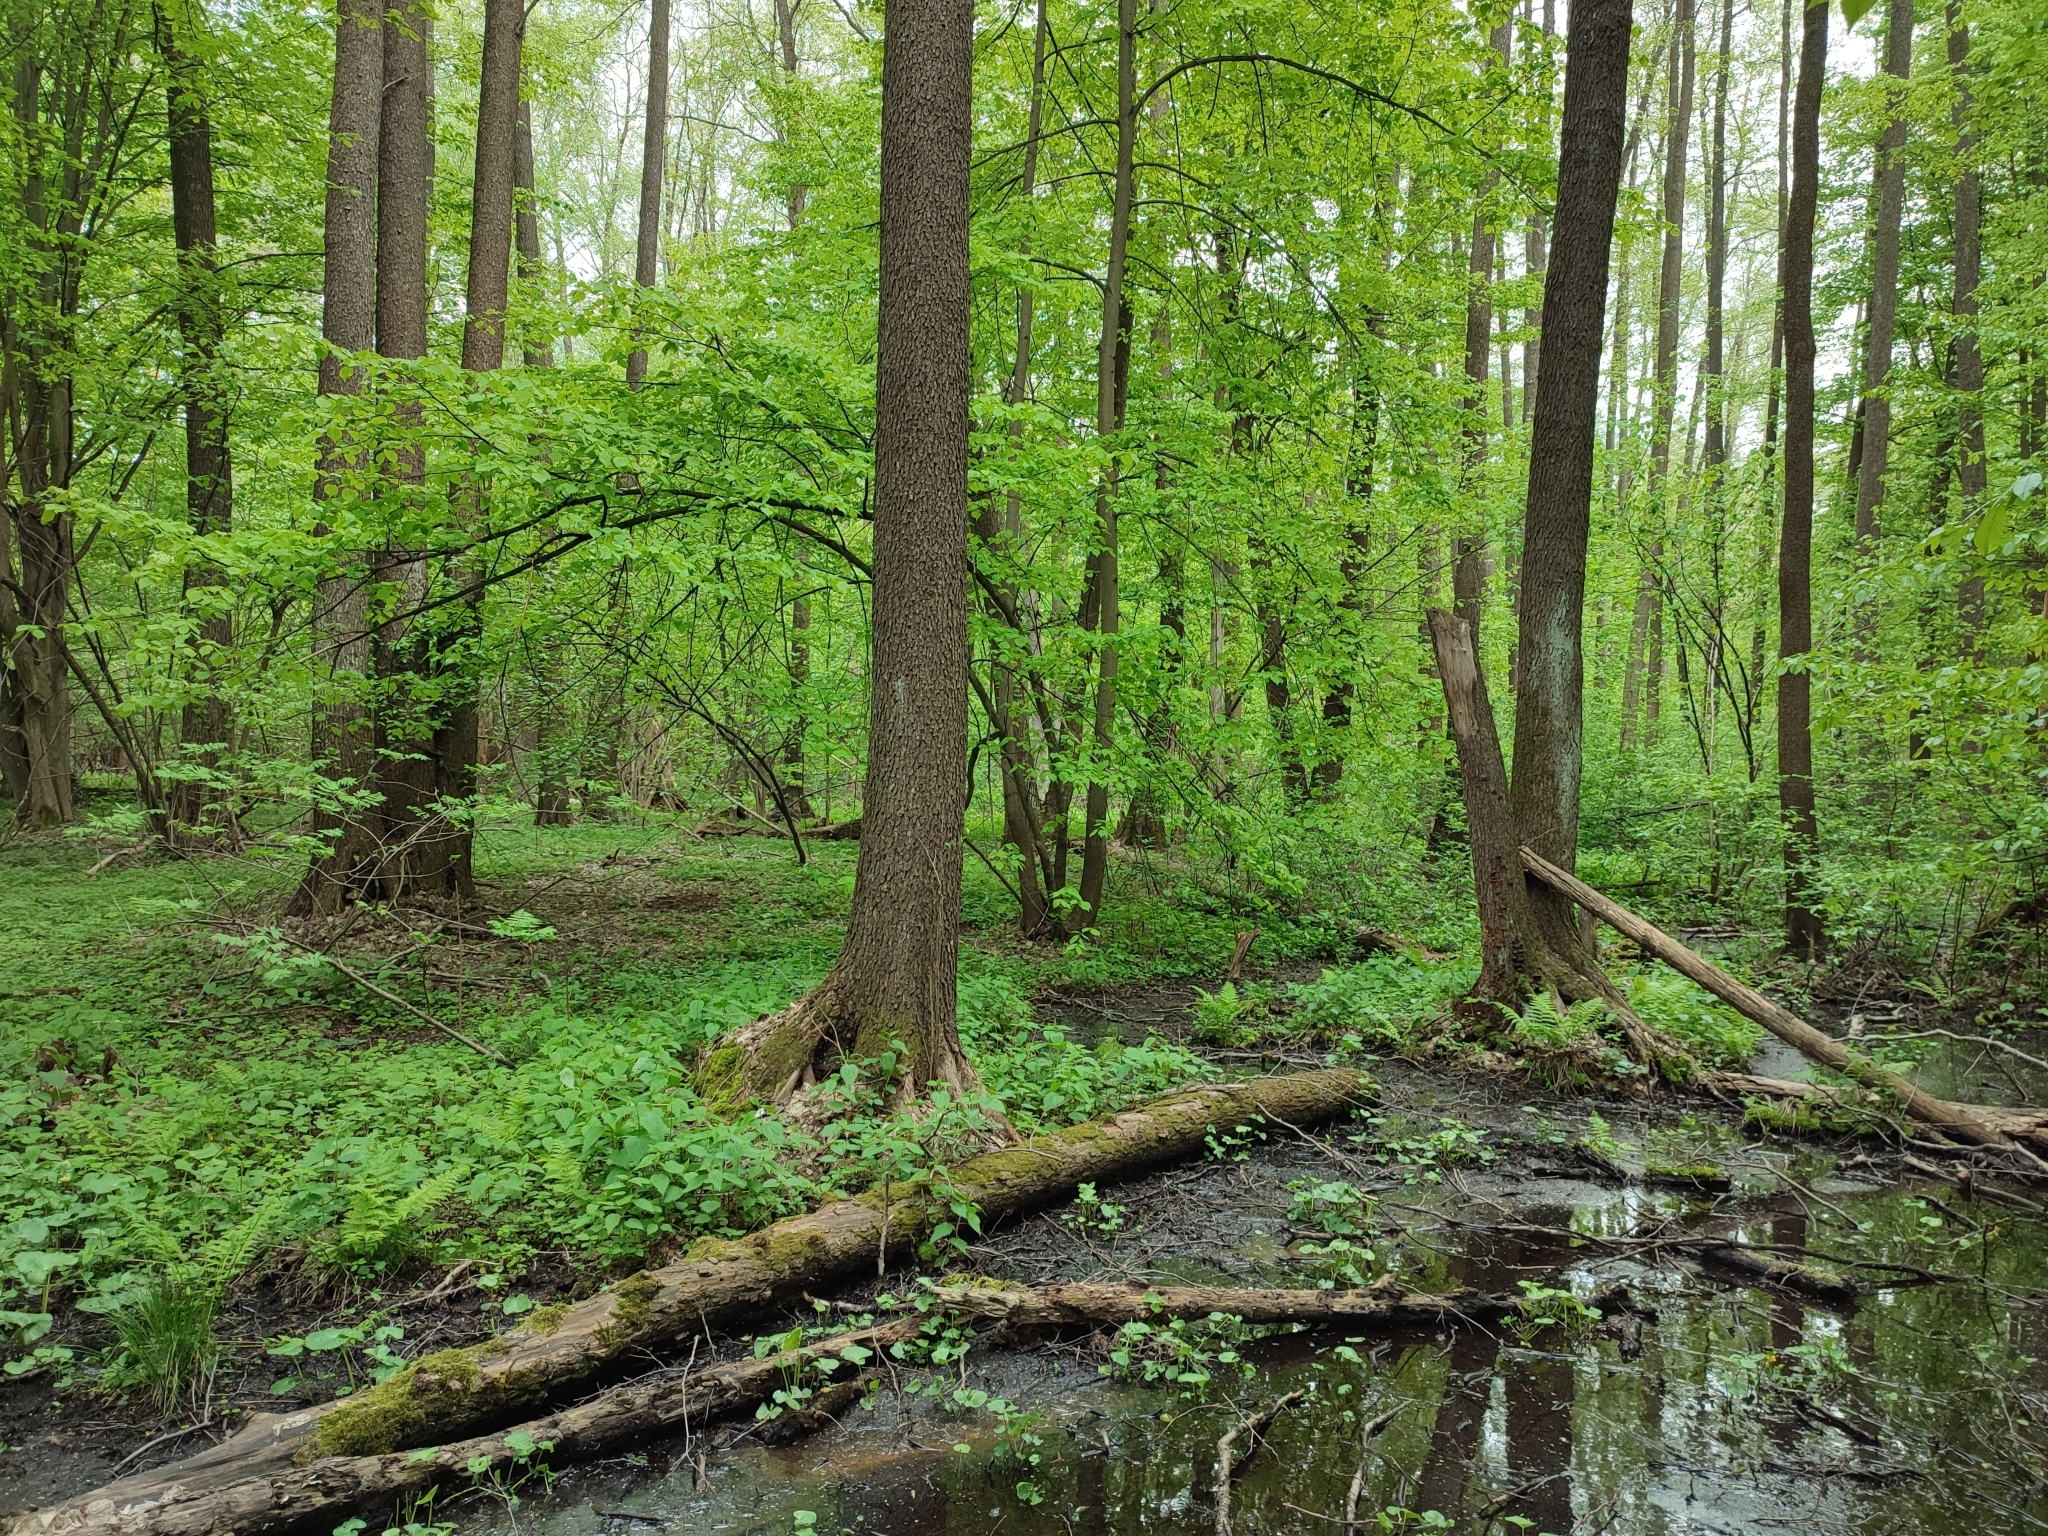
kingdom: Plantae
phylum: Tracheophyta
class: Magnoliopsida
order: Fagales
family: Betulaceae
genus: Alnus
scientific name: Alnus glutinosa
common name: Black alder
